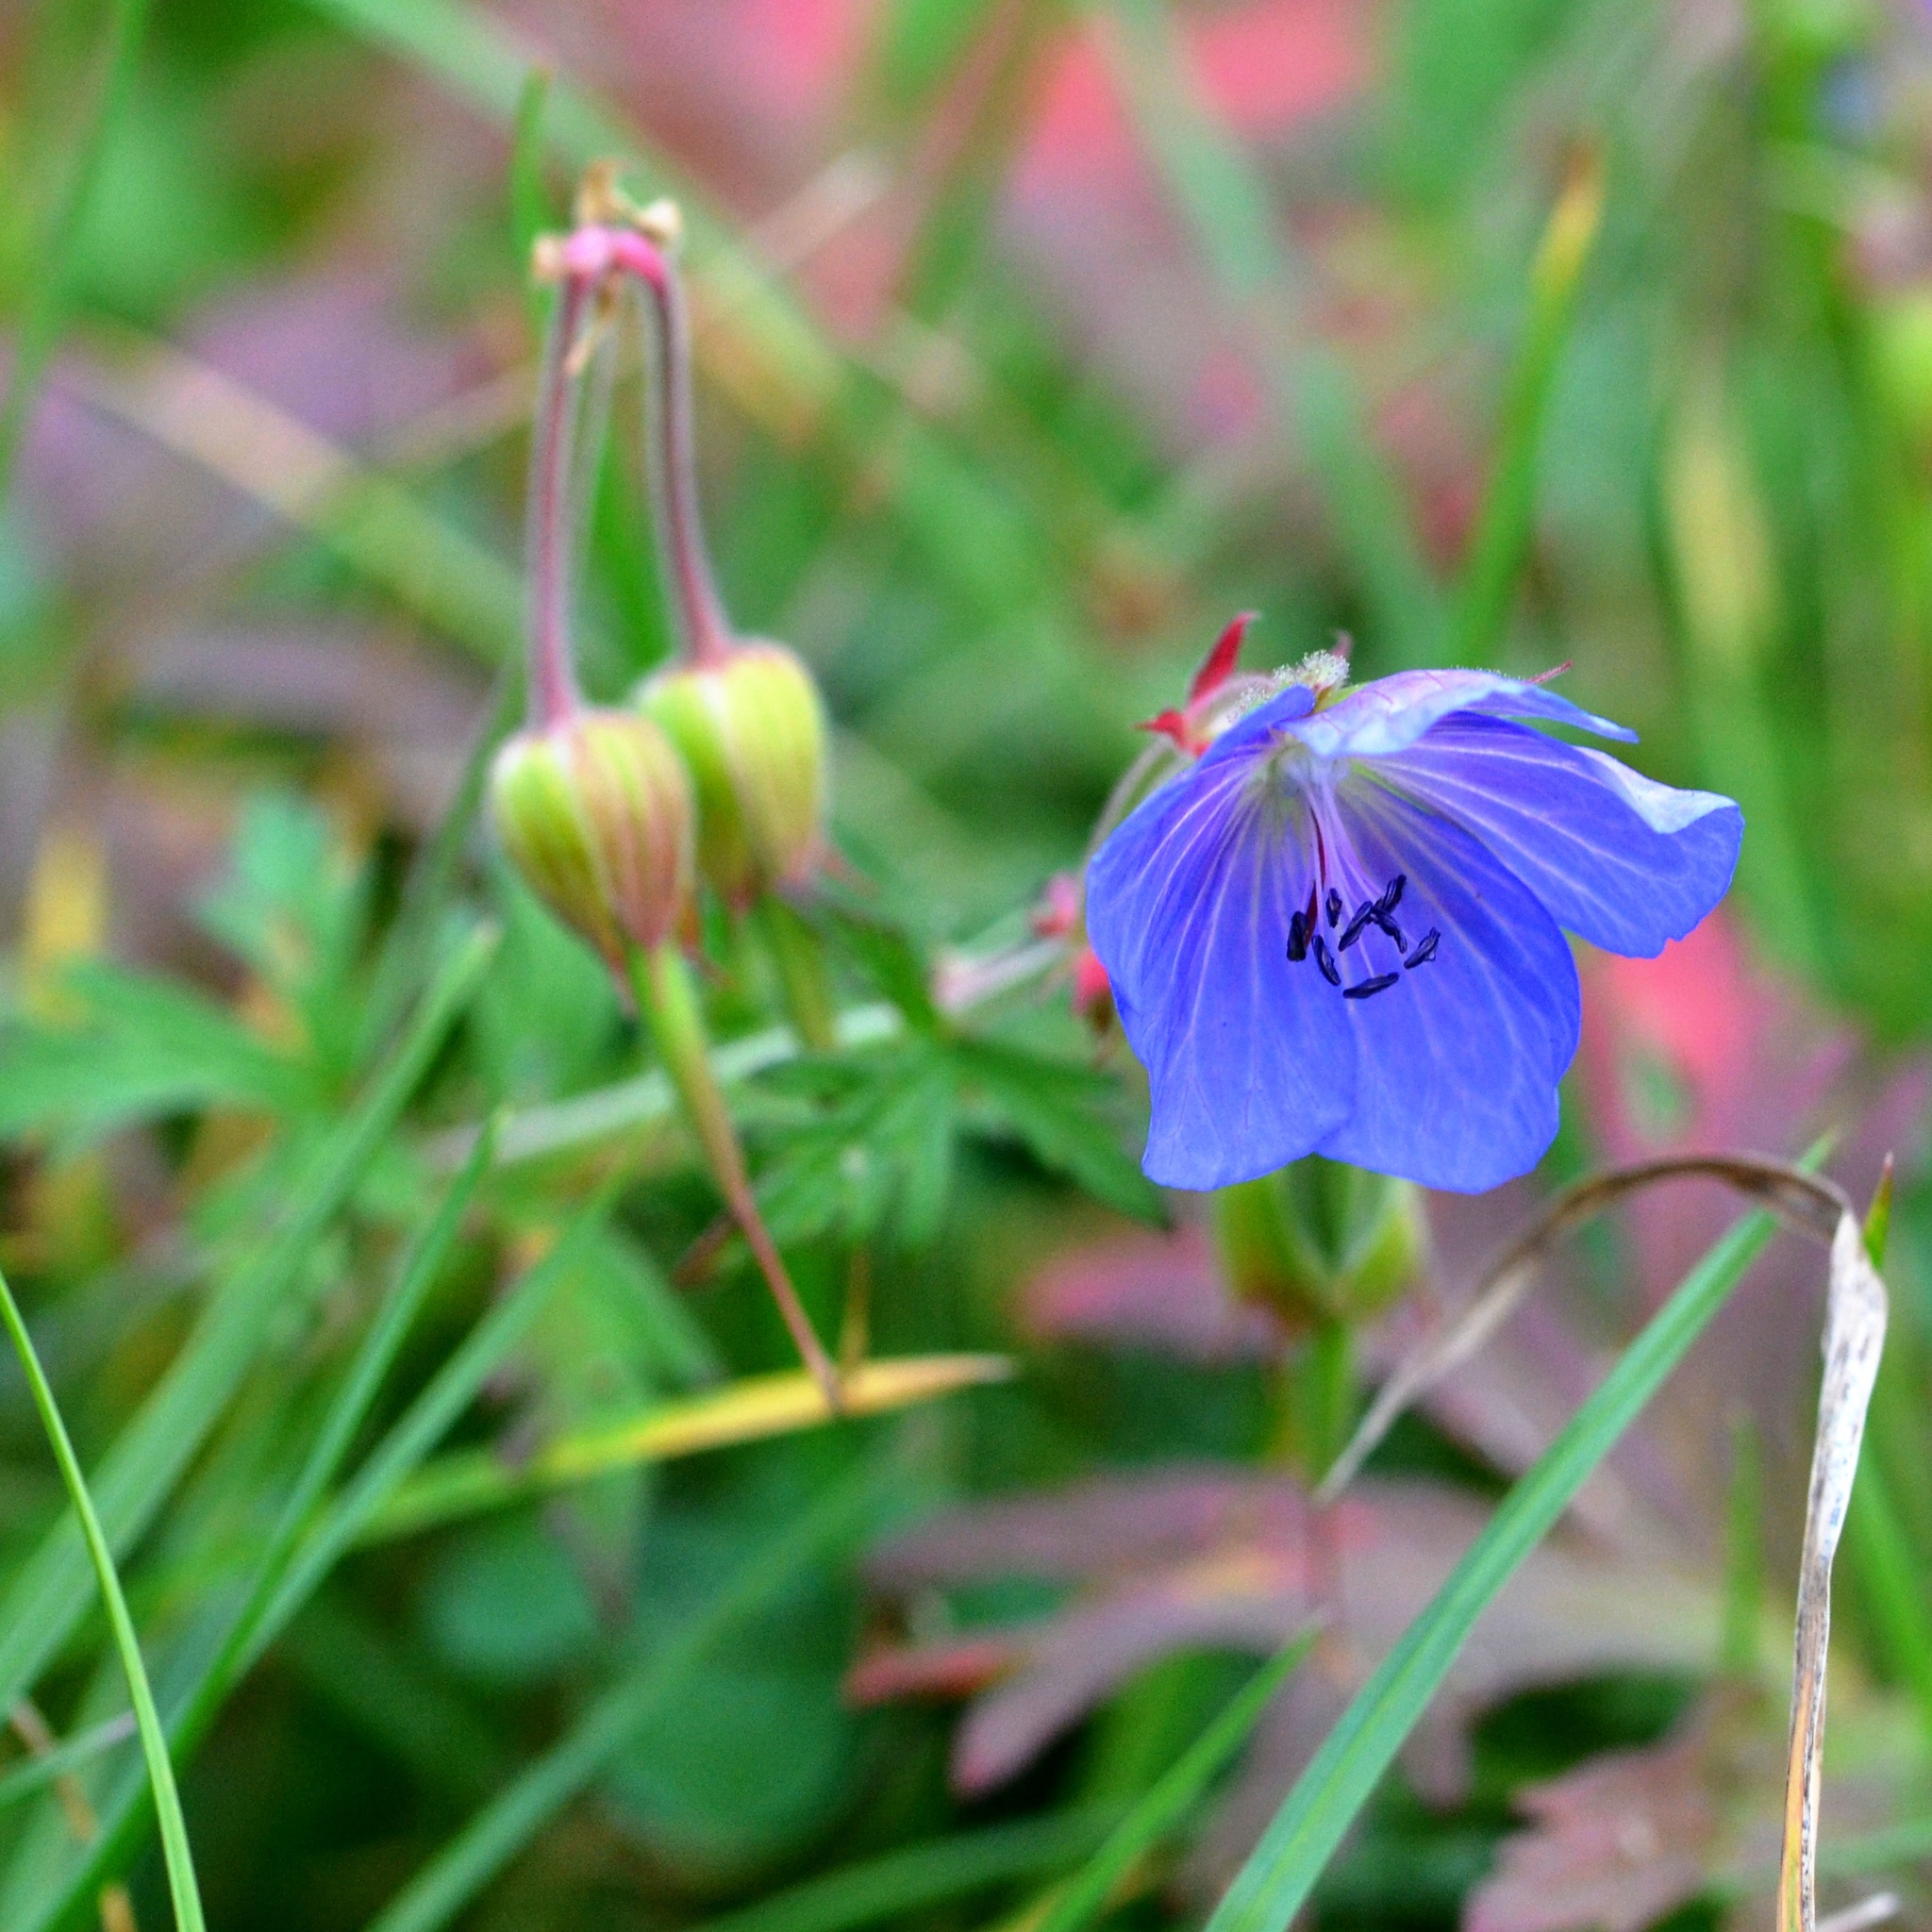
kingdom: Plantae
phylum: Tracheophyta
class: Magnoliopsida
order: Geraniales
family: Geraniaceae
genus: Geranium
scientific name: Geranium pratense
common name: Meadow crane's-bill
